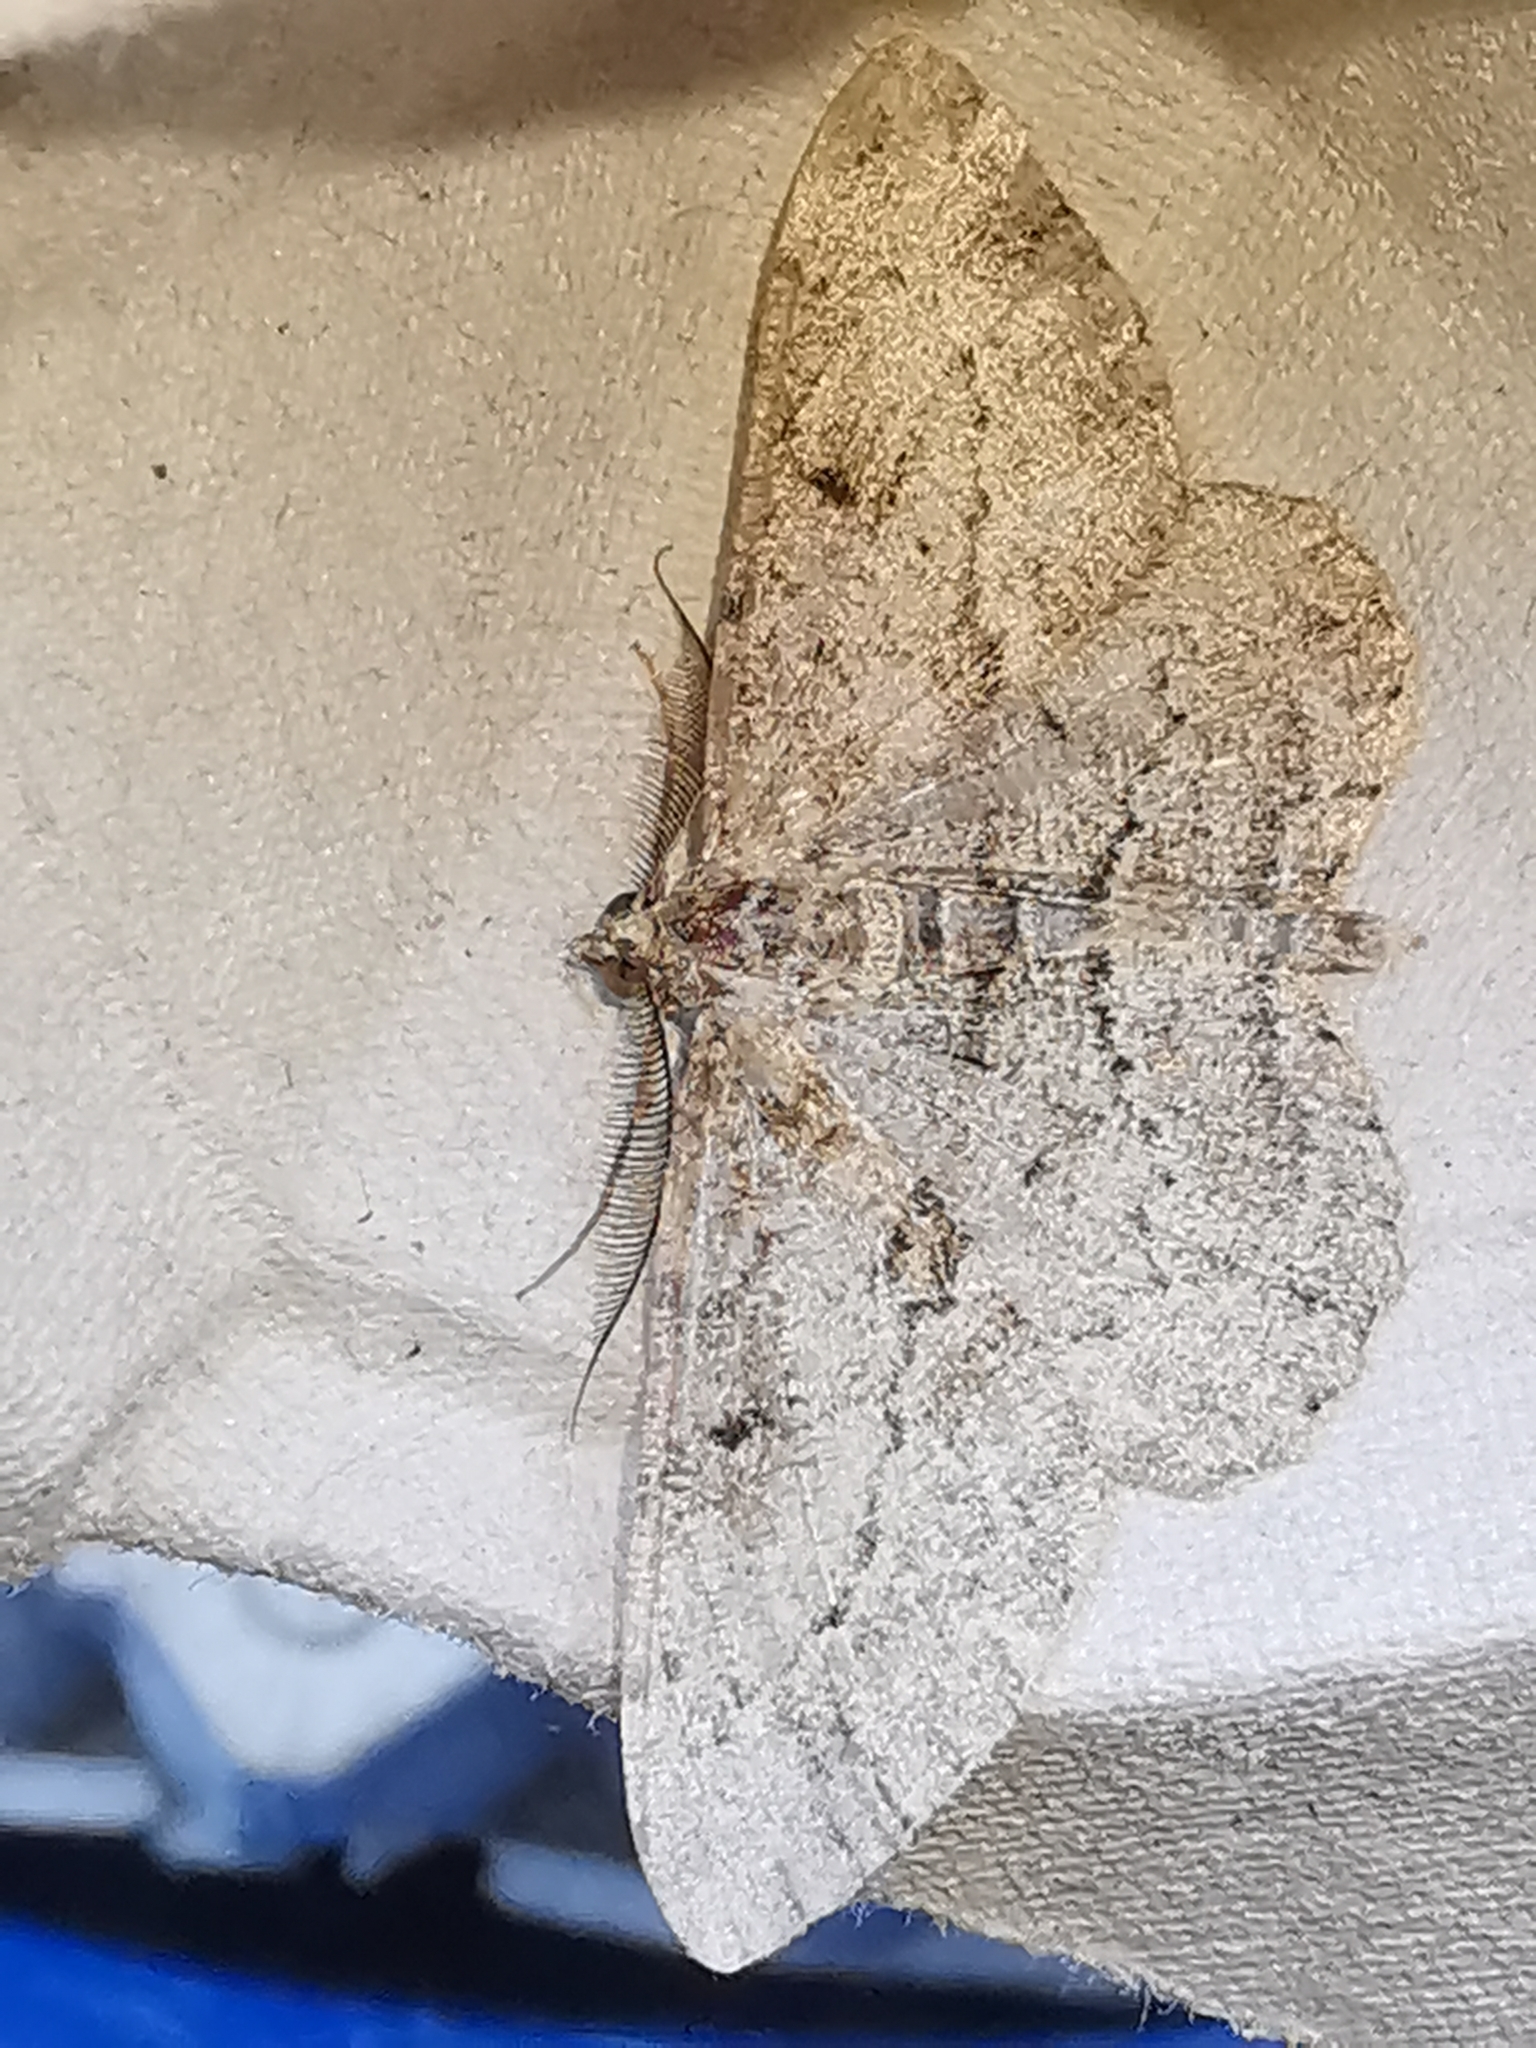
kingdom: Animalia
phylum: Arthropoda
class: Insecta
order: Lepidoptera
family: Geometridae
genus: Peribatodes
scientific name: Peribatodes rhomboidaria
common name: Willow beauty
